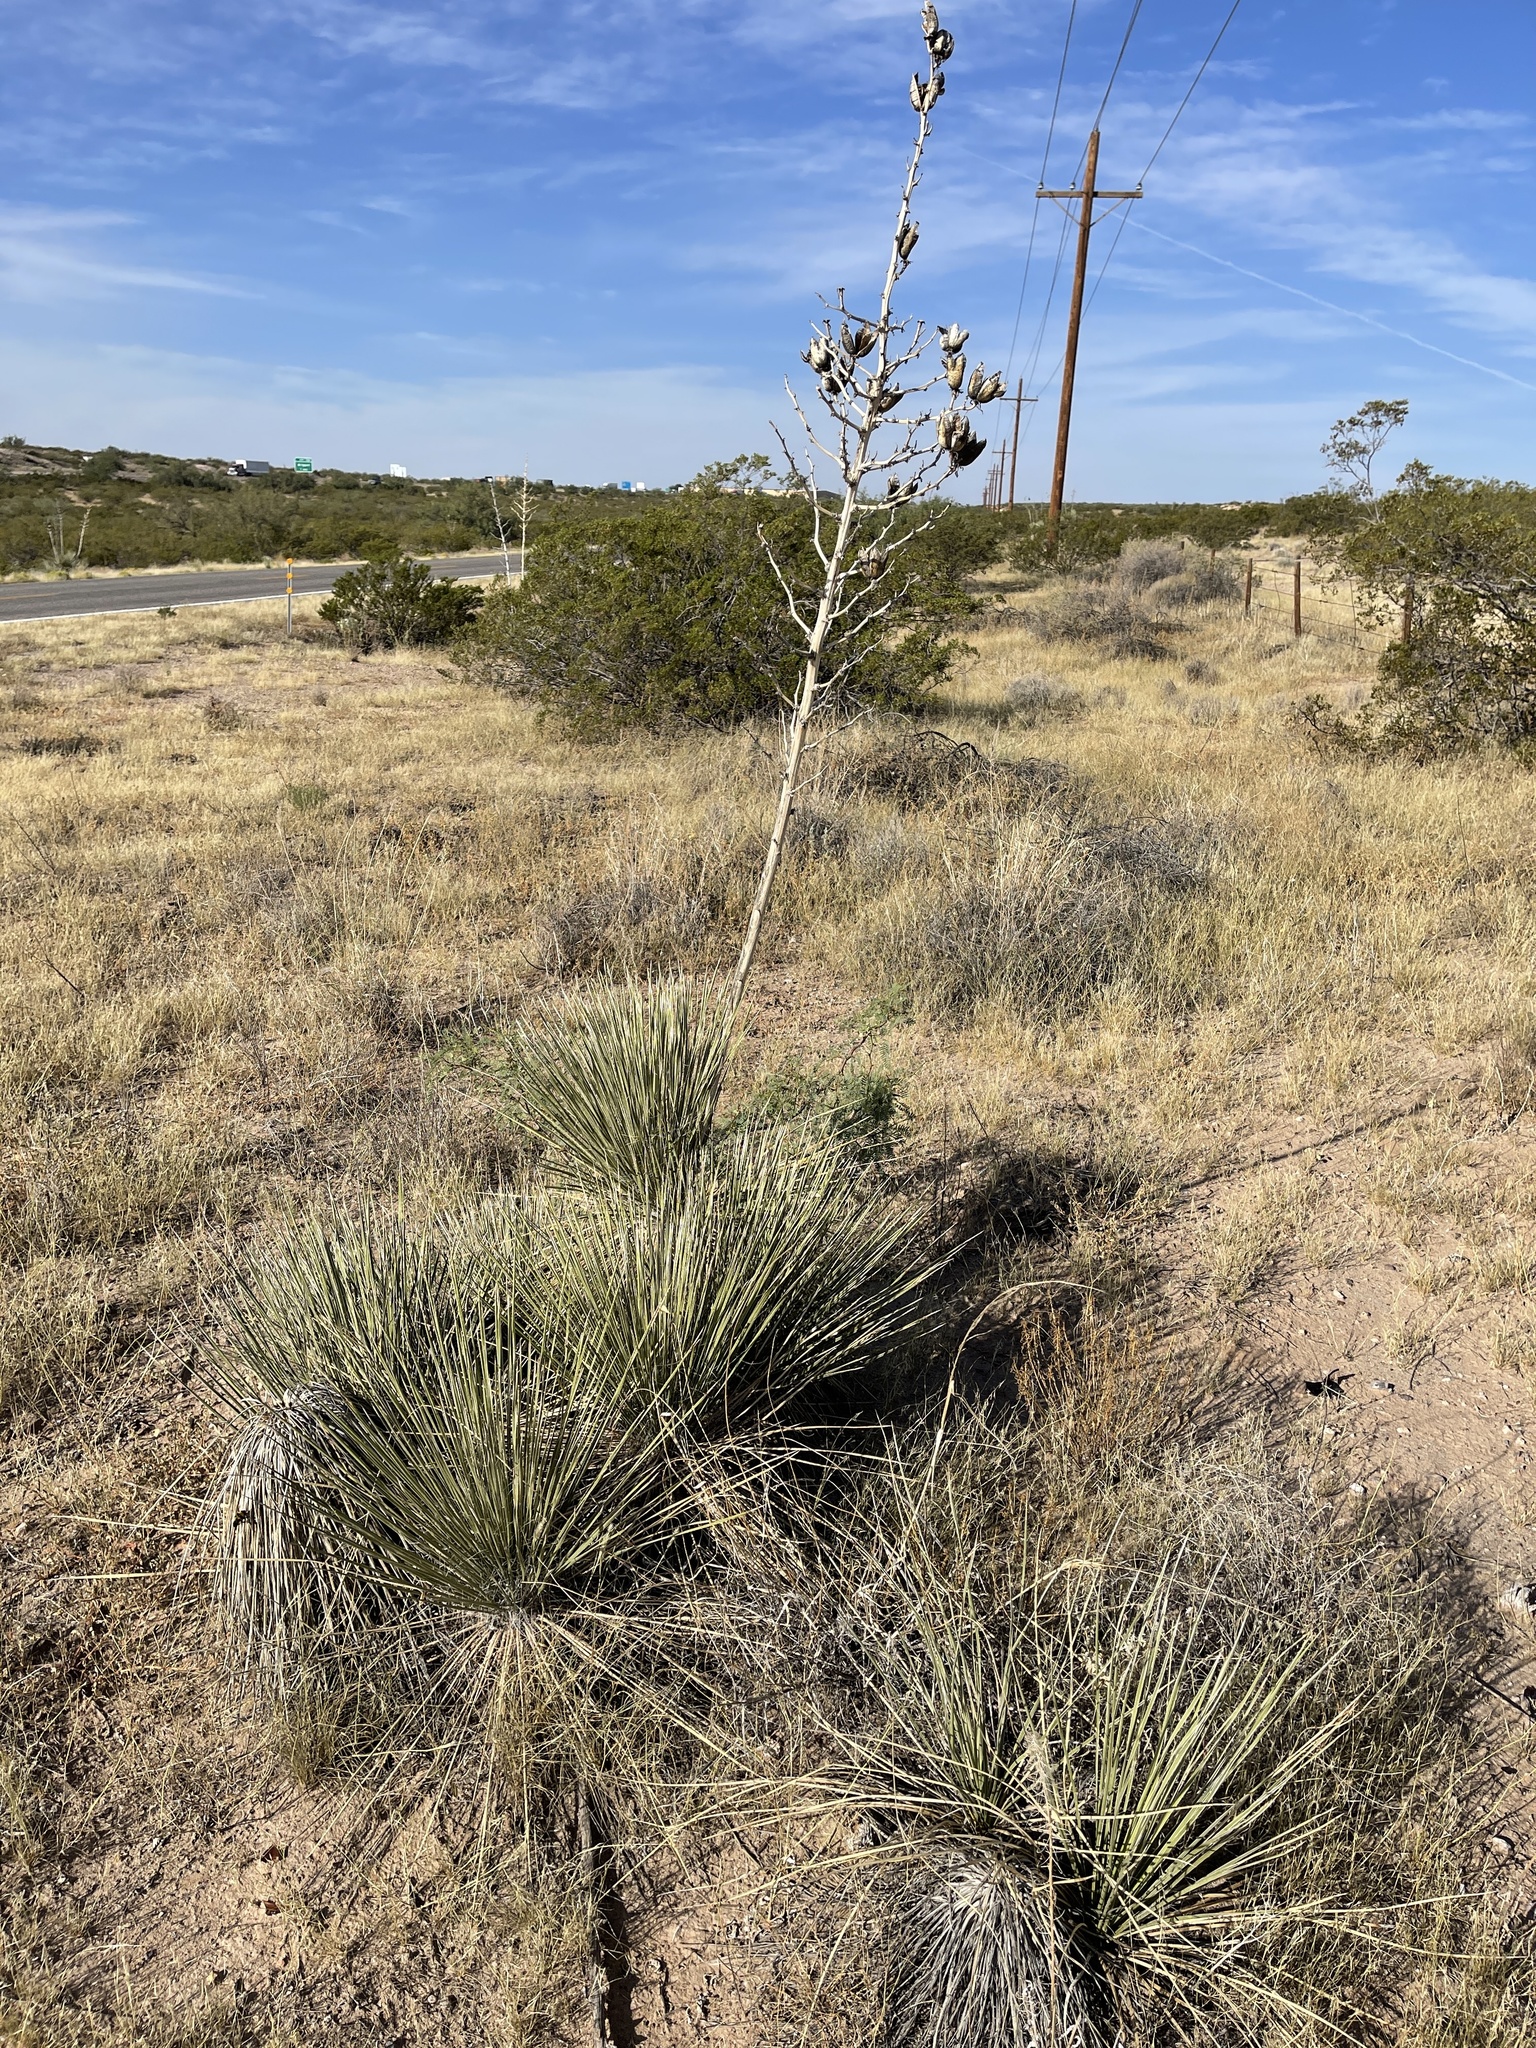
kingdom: Plantae
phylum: Tracheophyta
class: Liliopsida
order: Asparagales
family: Asparagaceae
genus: Yucca
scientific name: Yucca elata
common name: Palmella
